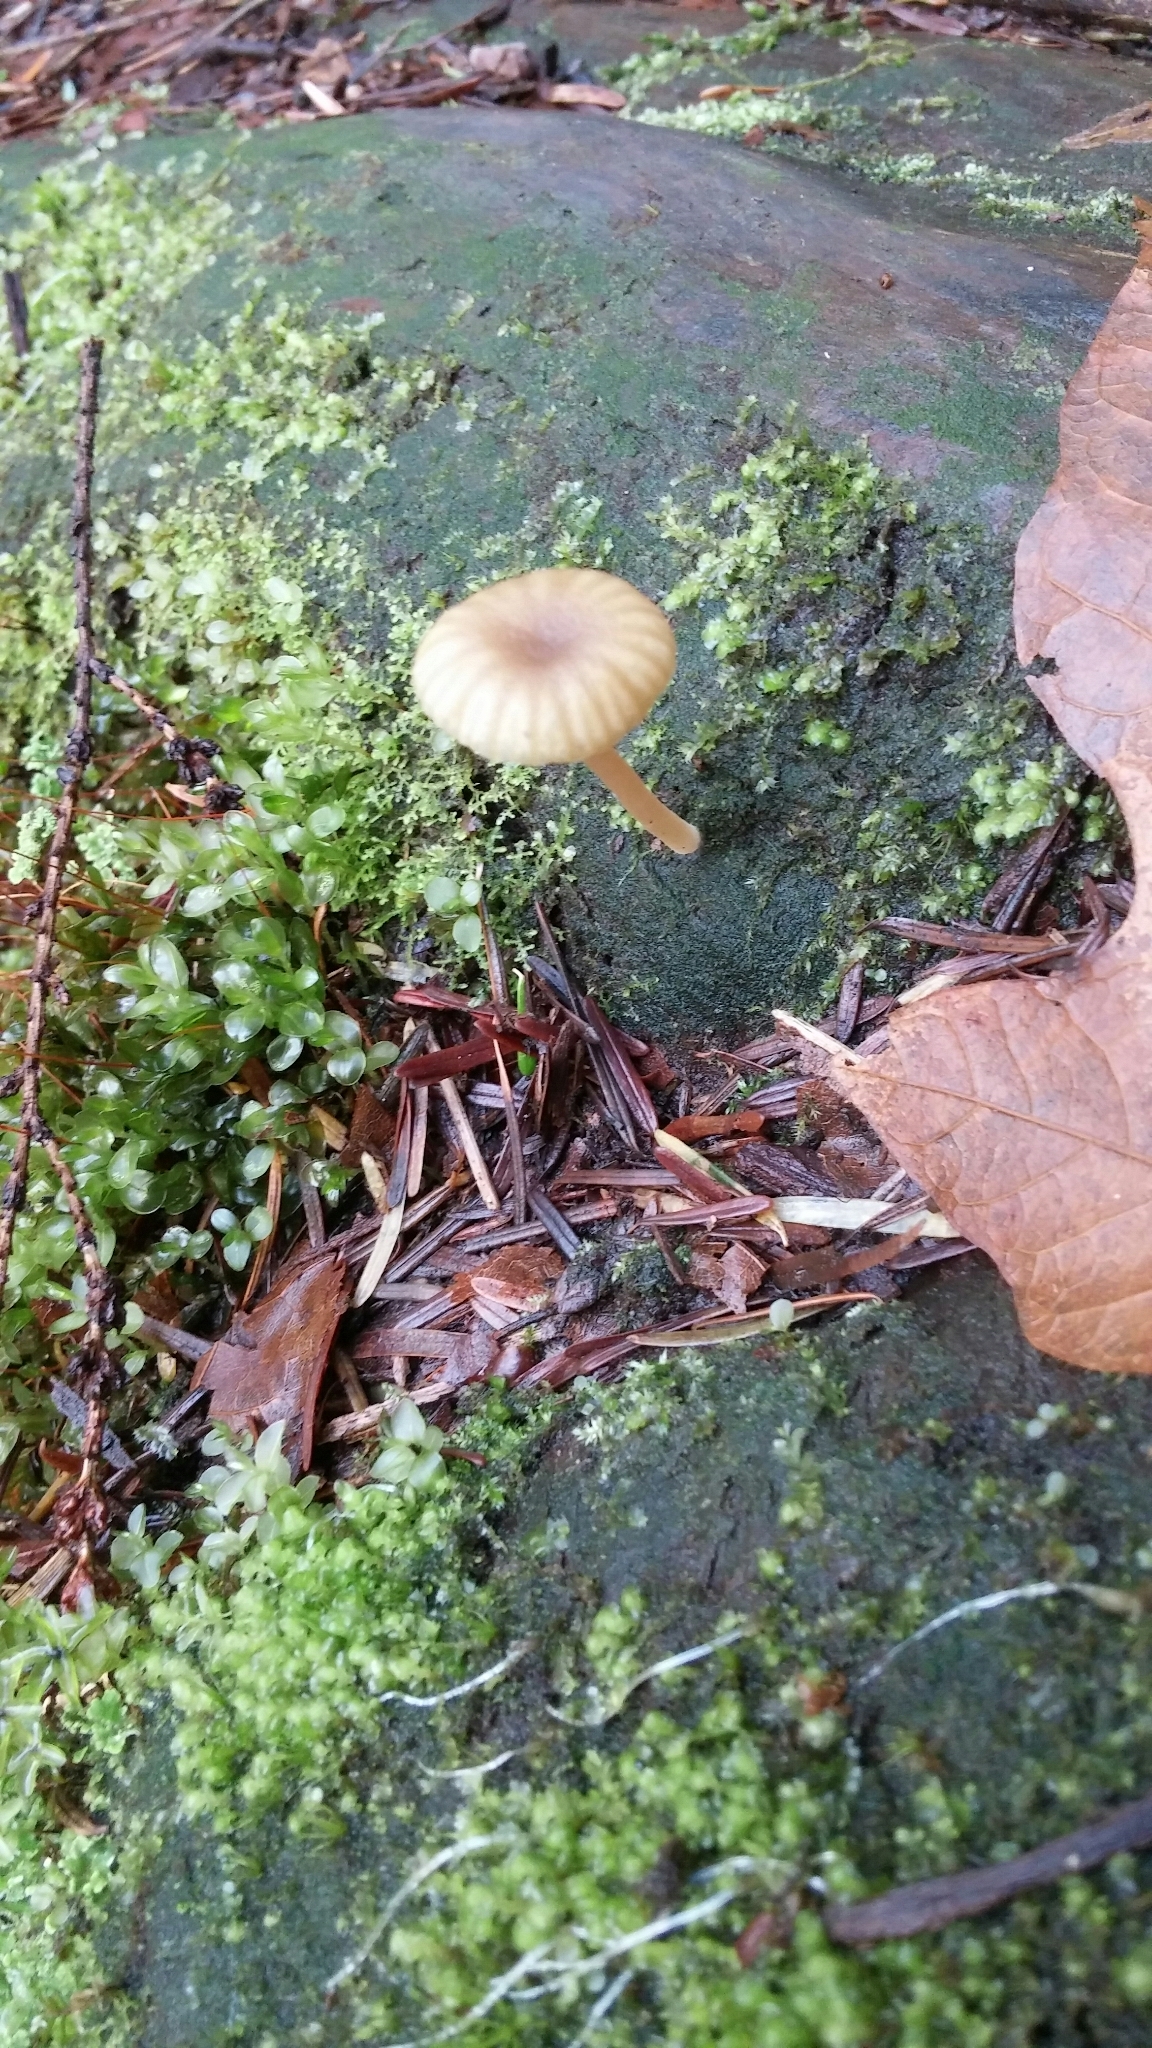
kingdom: Fungi
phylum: Basidiomycota
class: Agaricomycetes
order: Agaricales
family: Hygrophoraceae
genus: Lichenomphalia
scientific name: Lichenomphalia
